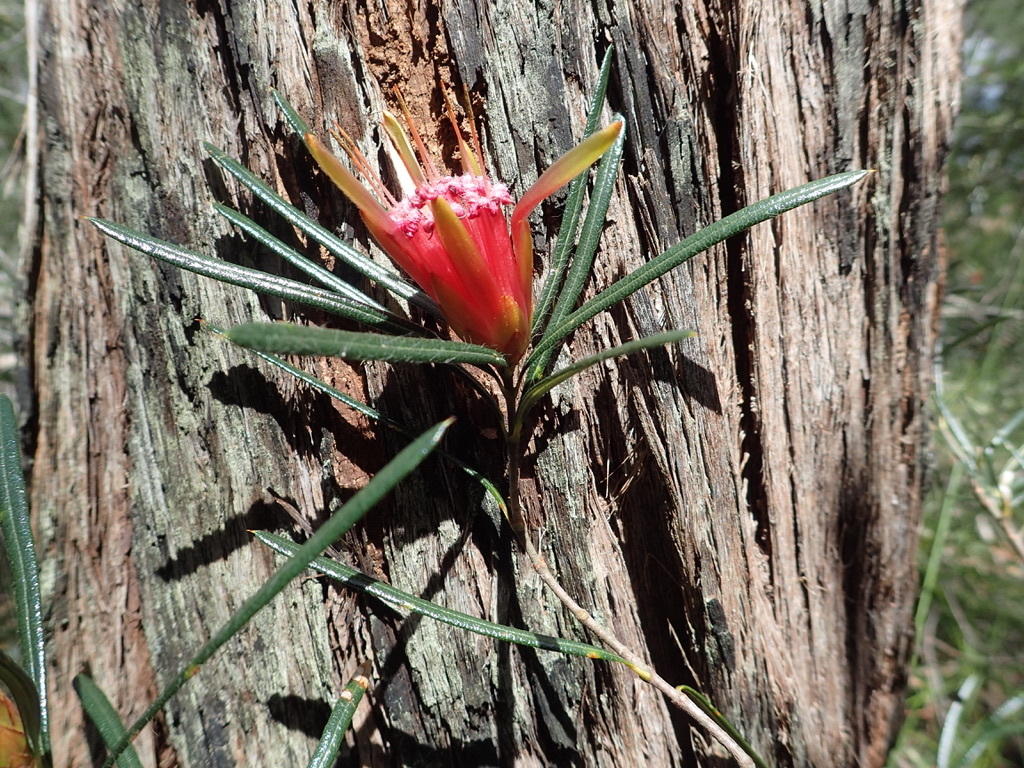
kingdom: Plantae
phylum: Tracheophyta
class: Magnoliopsida
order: Proteales
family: Proteaceae
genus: Lambertia
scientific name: Lambertia formosa
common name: Mountain-devil
